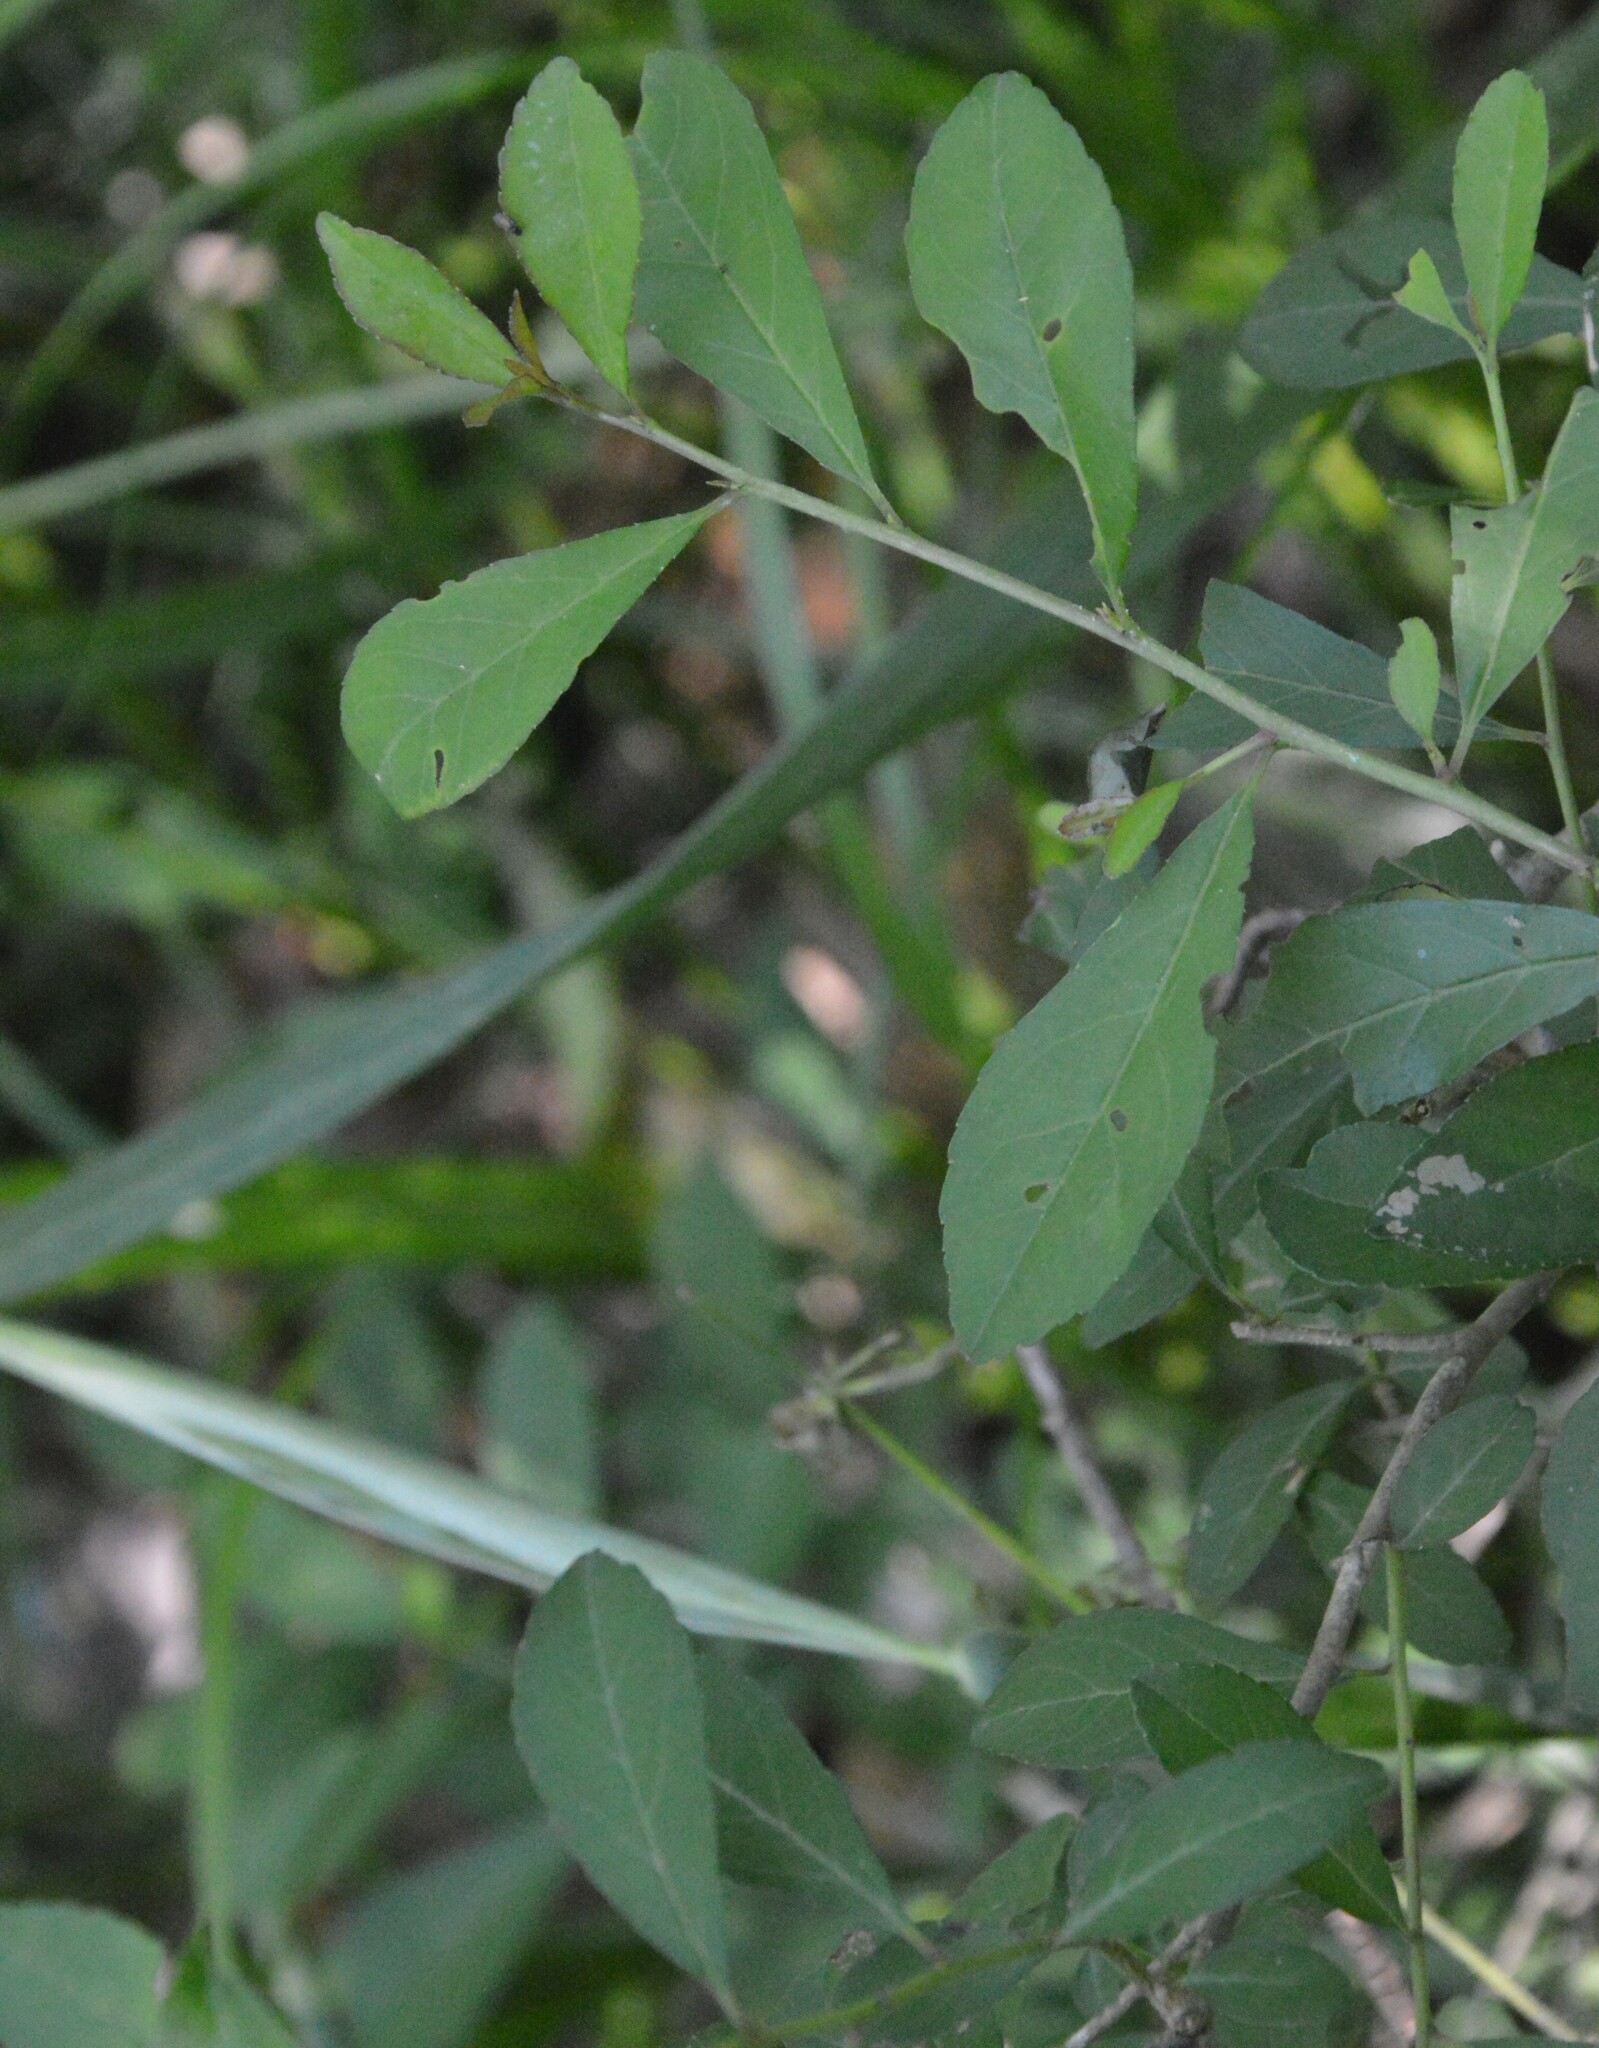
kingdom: Plantae
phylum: Tracheophyta
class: Magnoliopsida
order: Aquifoliales
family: Aquifoliaceae
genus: Ilex
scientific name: Ilex decidua
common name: Possum-haw
